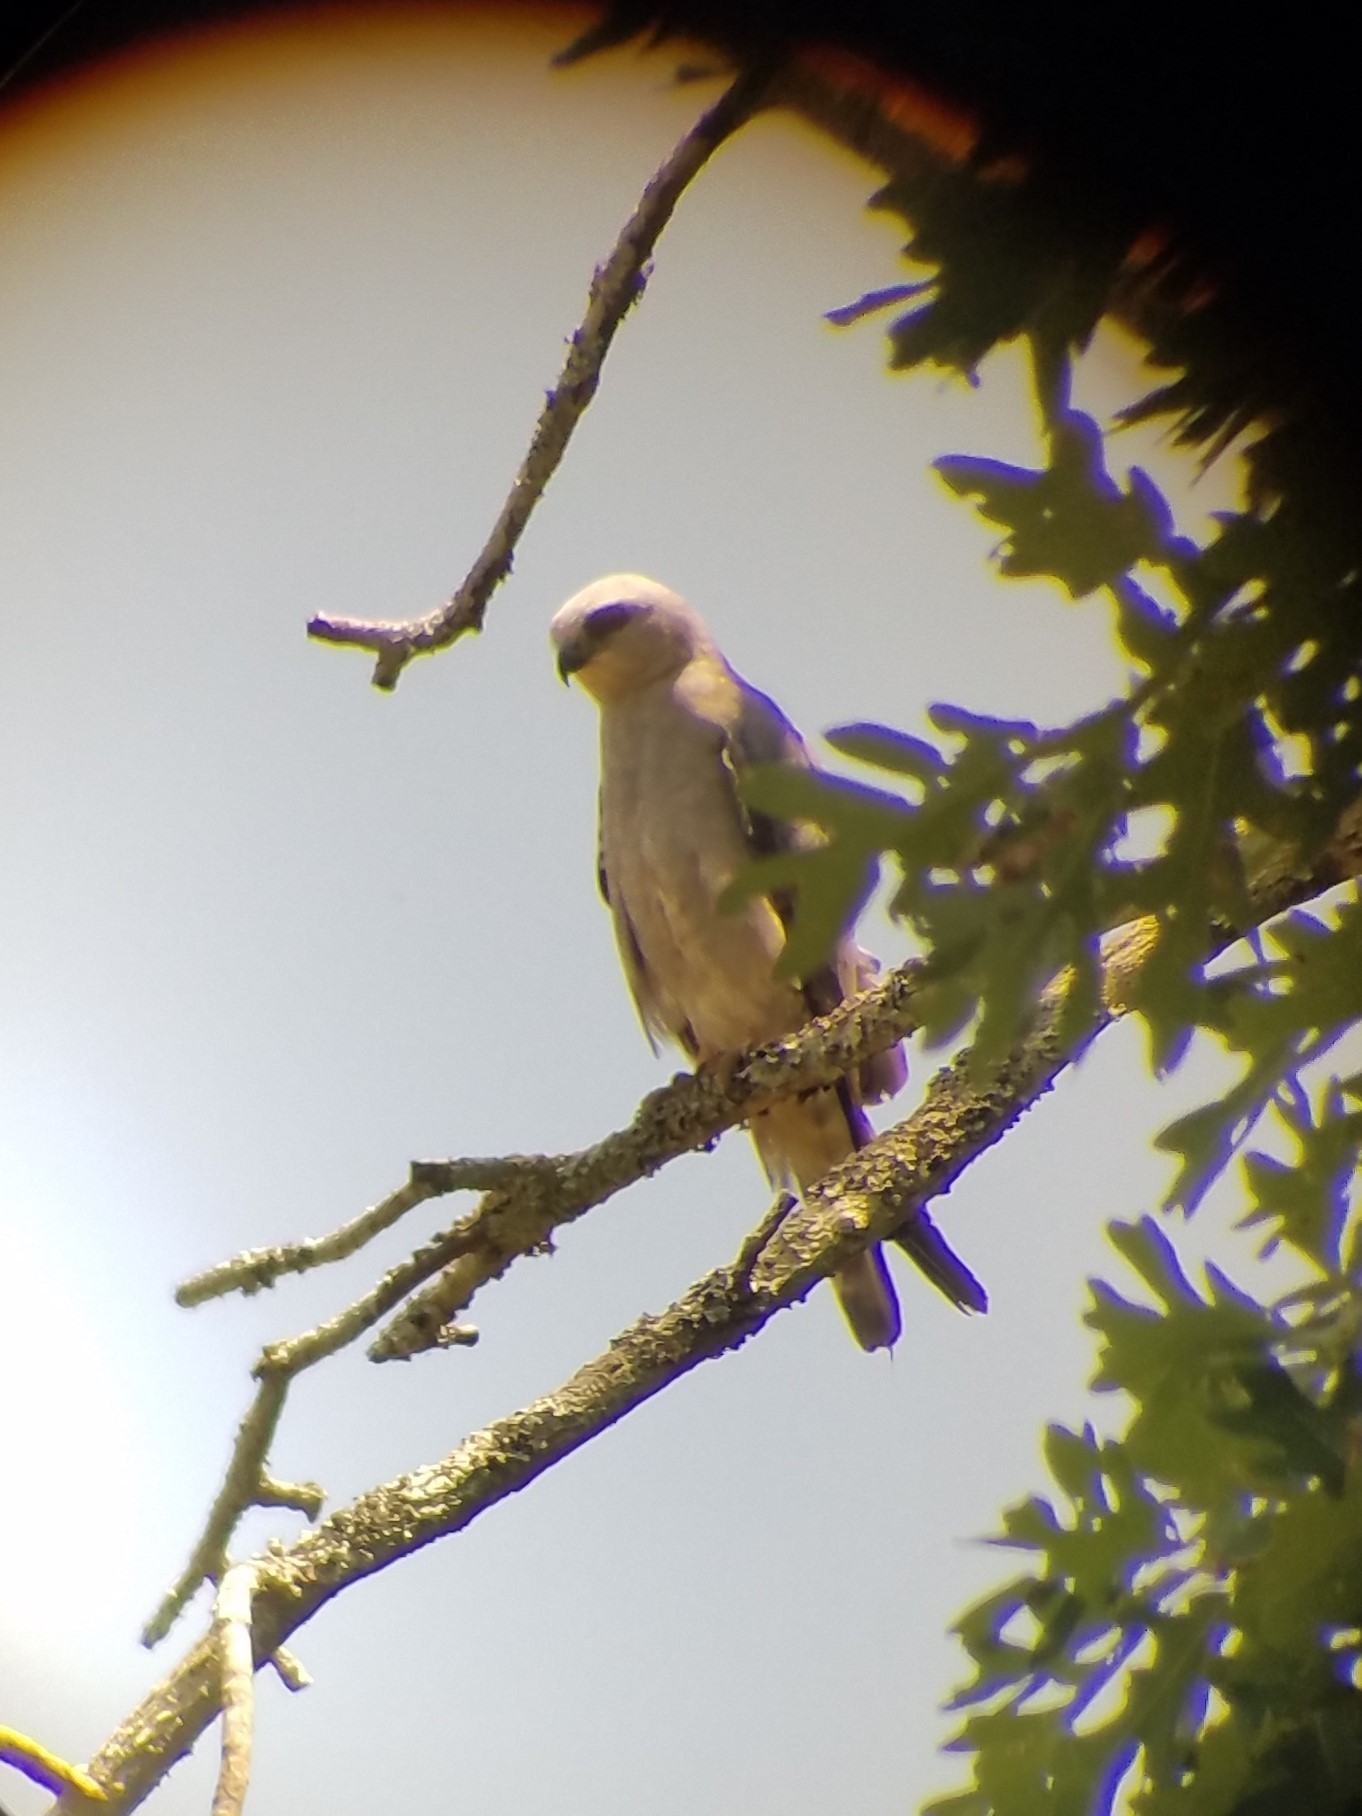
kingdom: Animalia
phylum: Chordata
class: Aves
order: Accipitriformes
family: Accipitridae
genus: Ictinia
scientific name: Ictinia mississippiensis
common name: Mississippi kite
